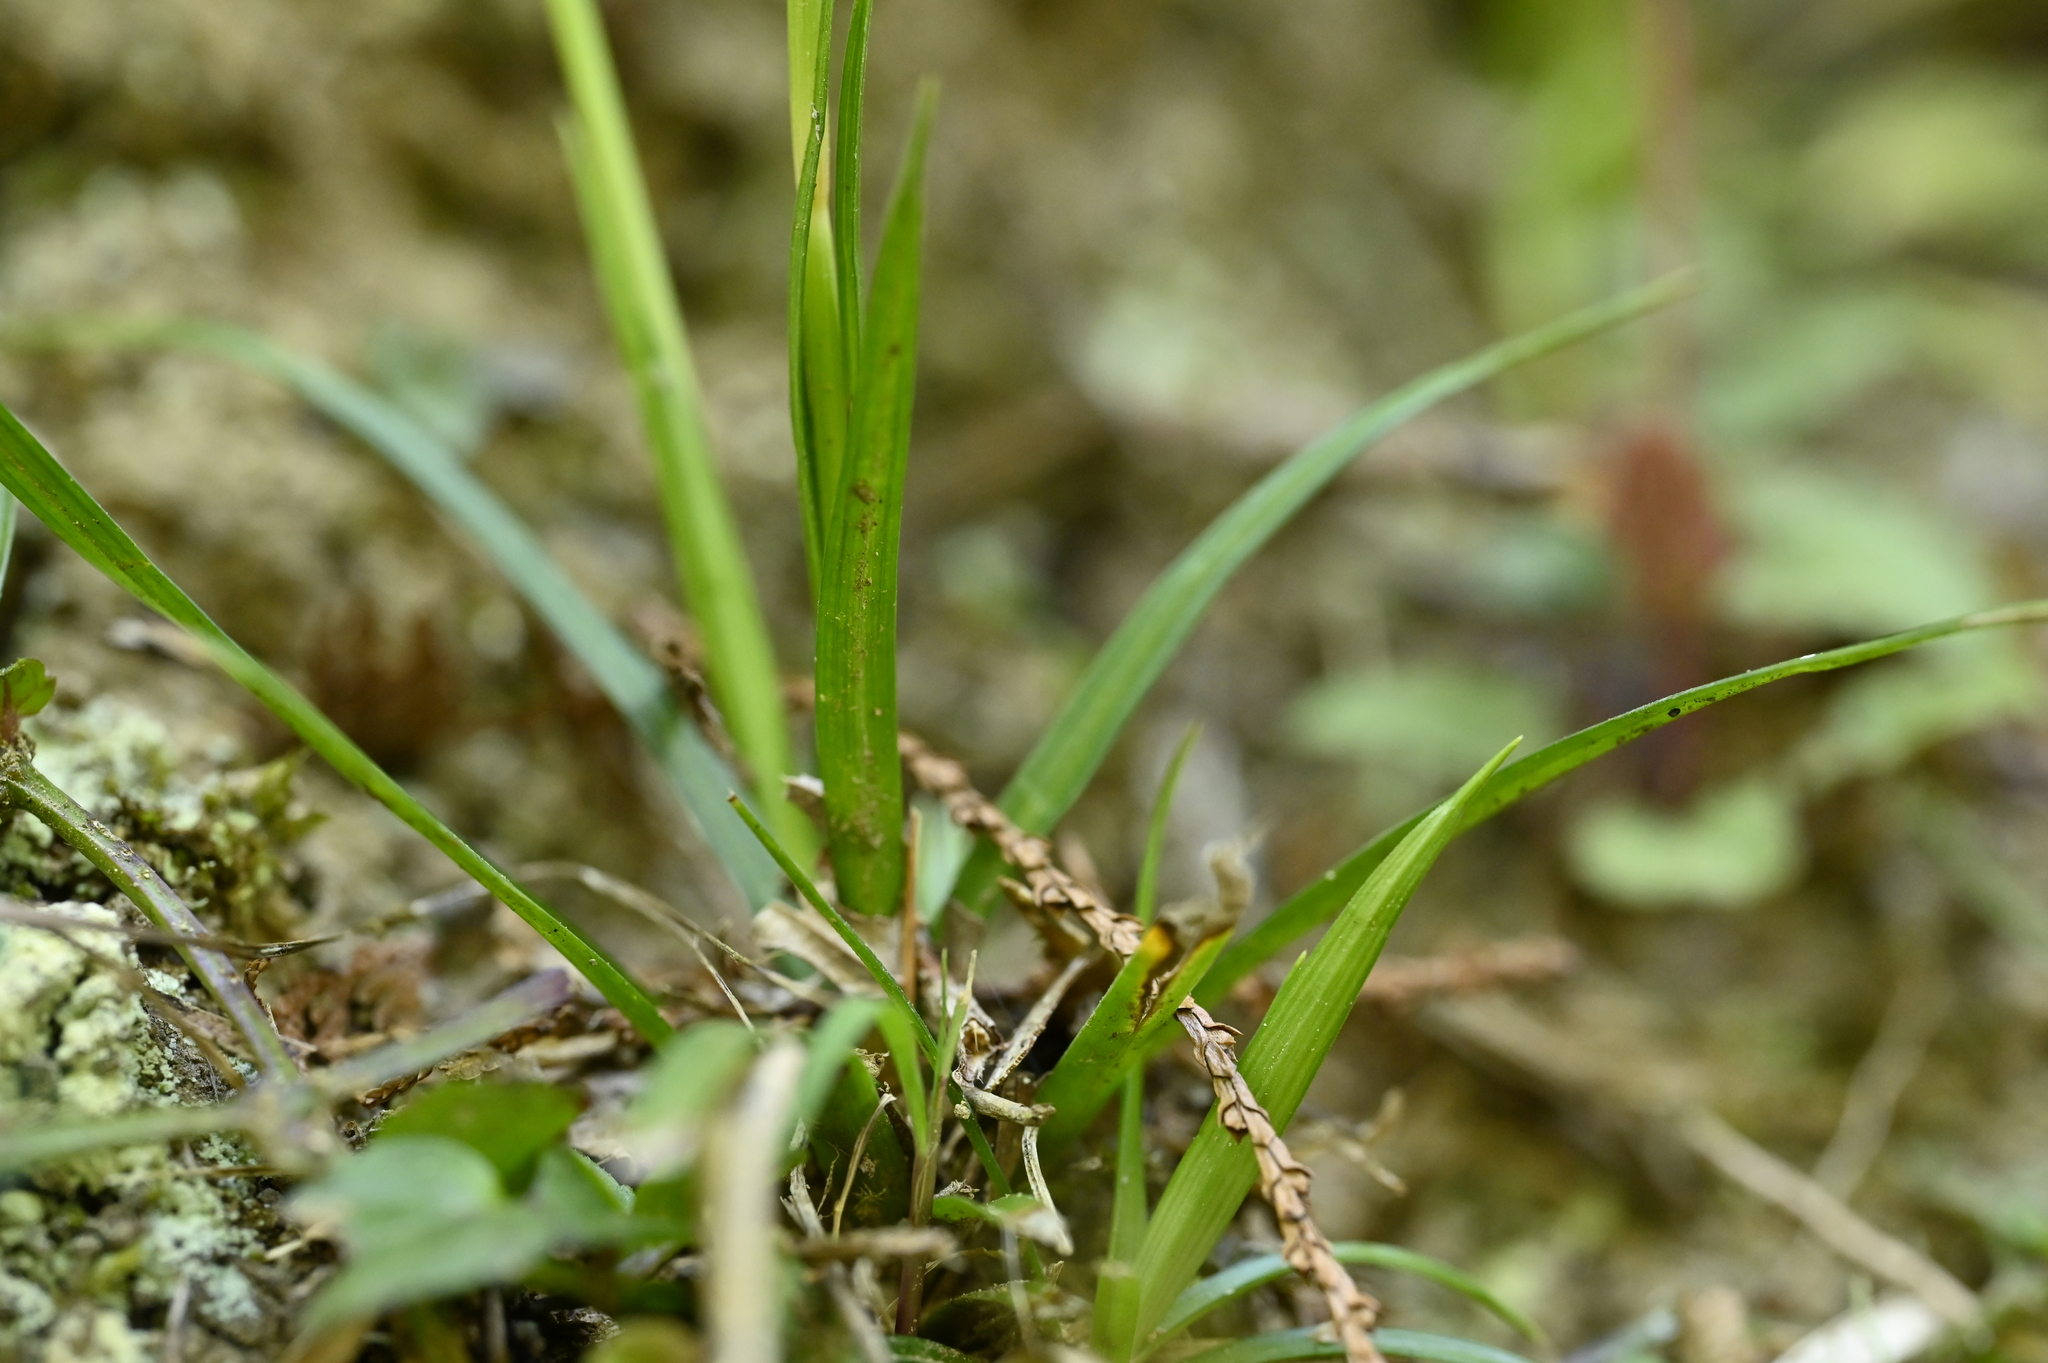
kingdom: Plantae
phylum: Tracheophyta
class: Liliopsida
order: Poales
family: Cyperaceae
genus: Carex
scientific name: Carex sociata
